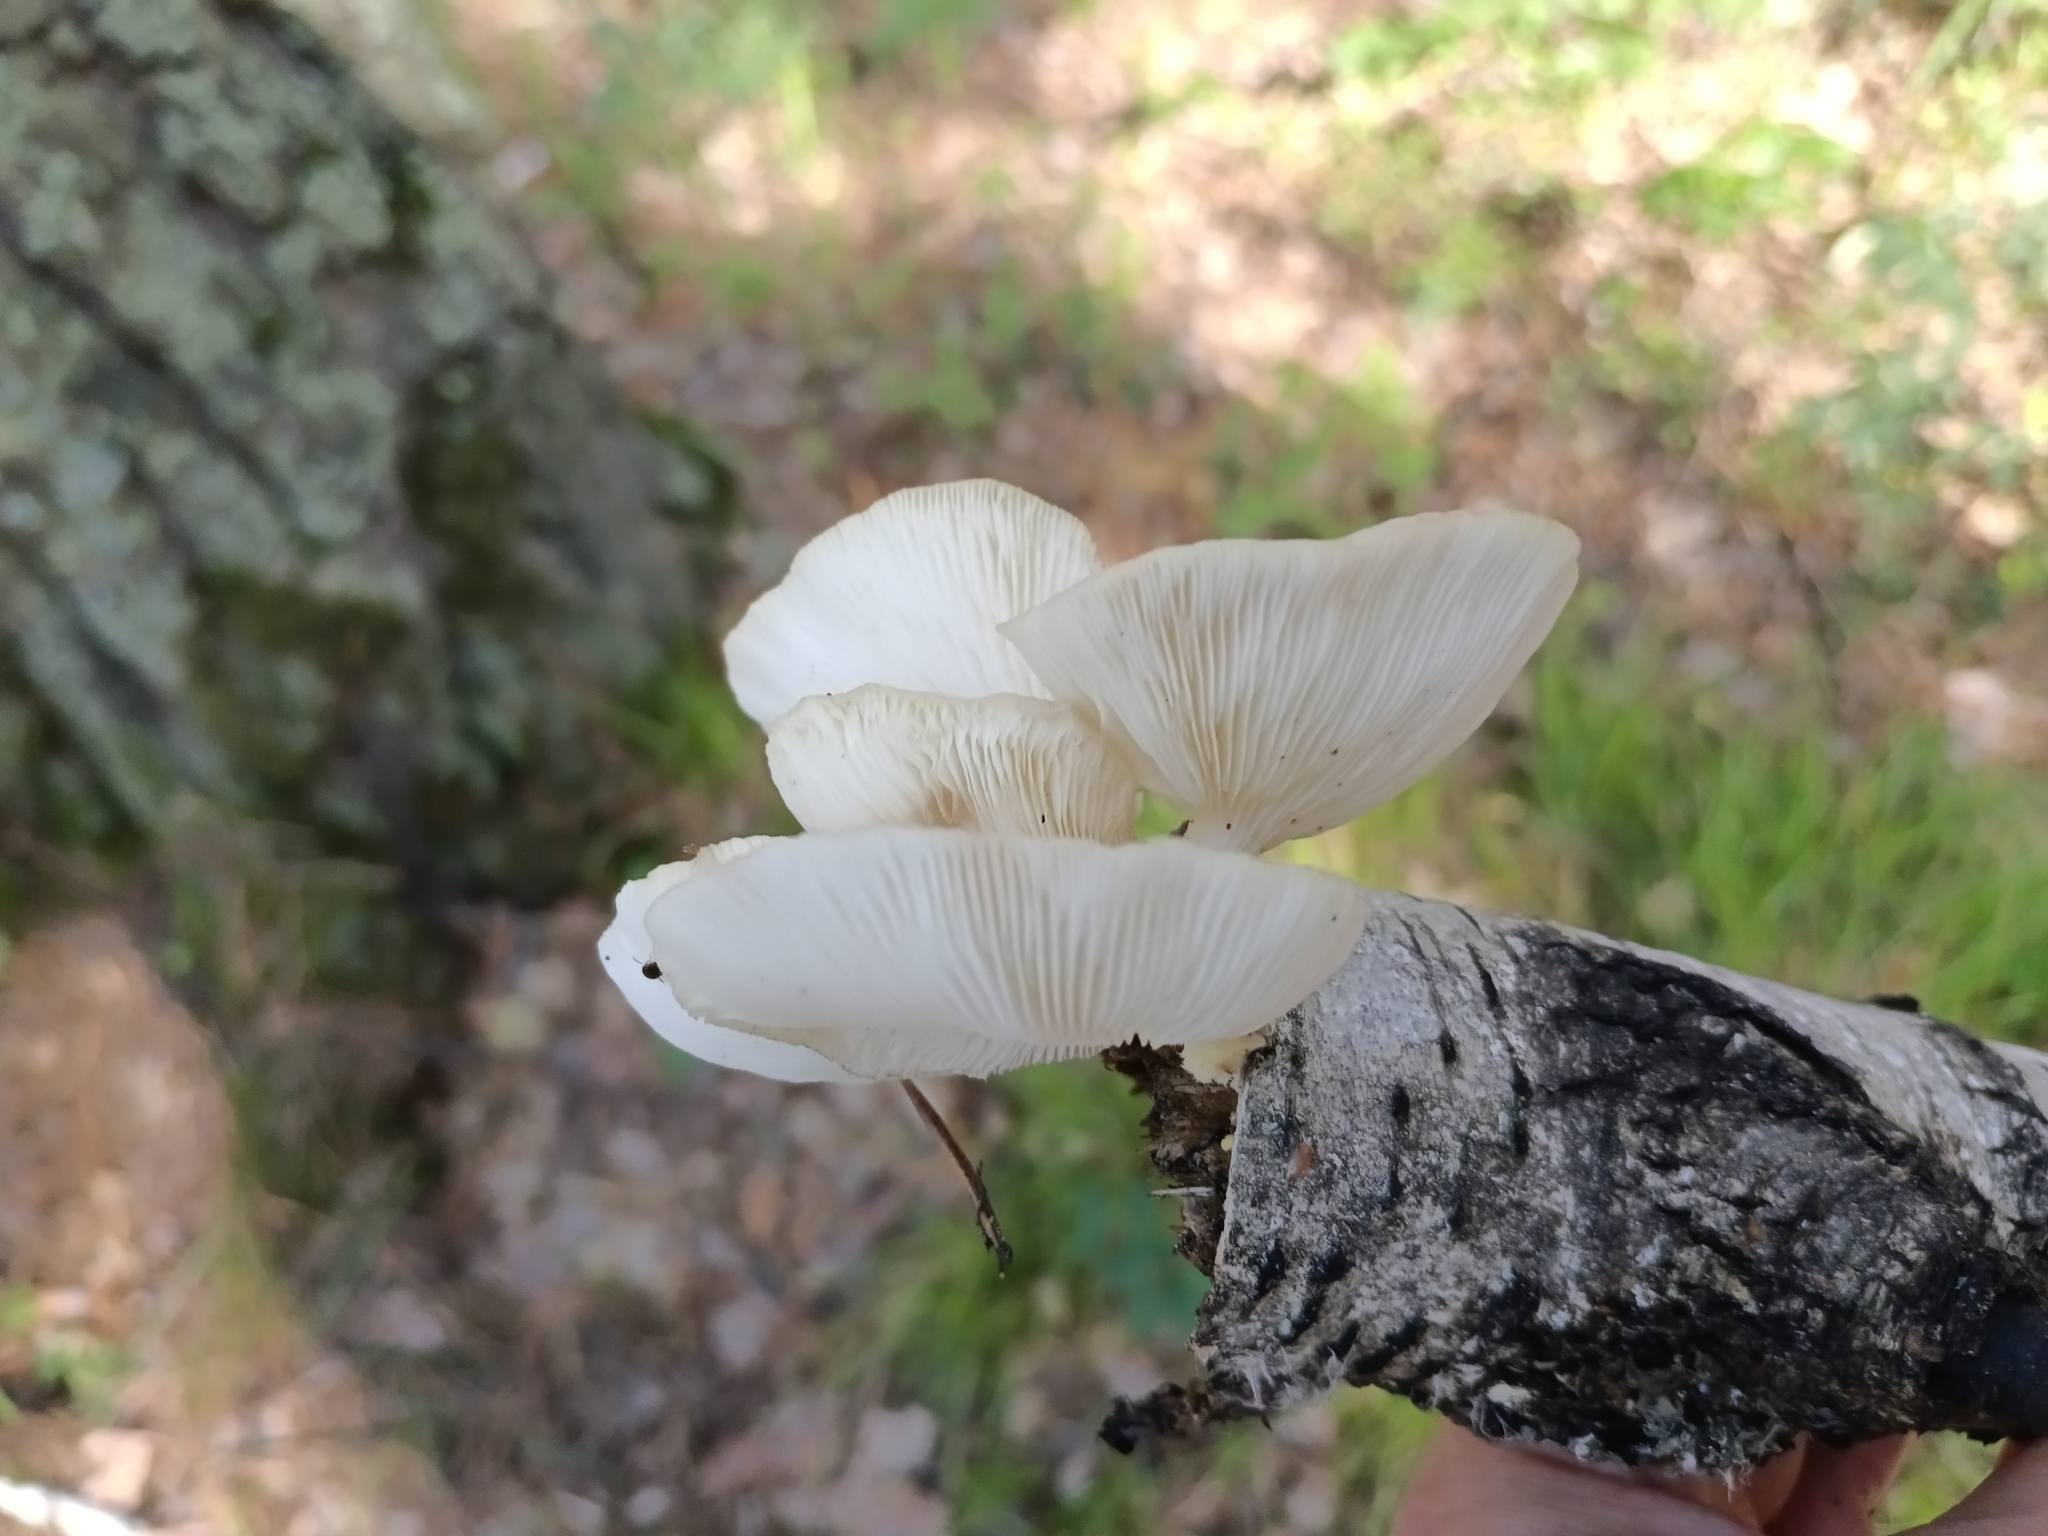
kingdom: Fungi
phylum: Basidiomycota
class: Agaricomycetes
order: Agaricales
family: Pleurotaceae
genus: Pleurotus
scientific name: Pleurotus pulmonarius
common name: Pale oyster
